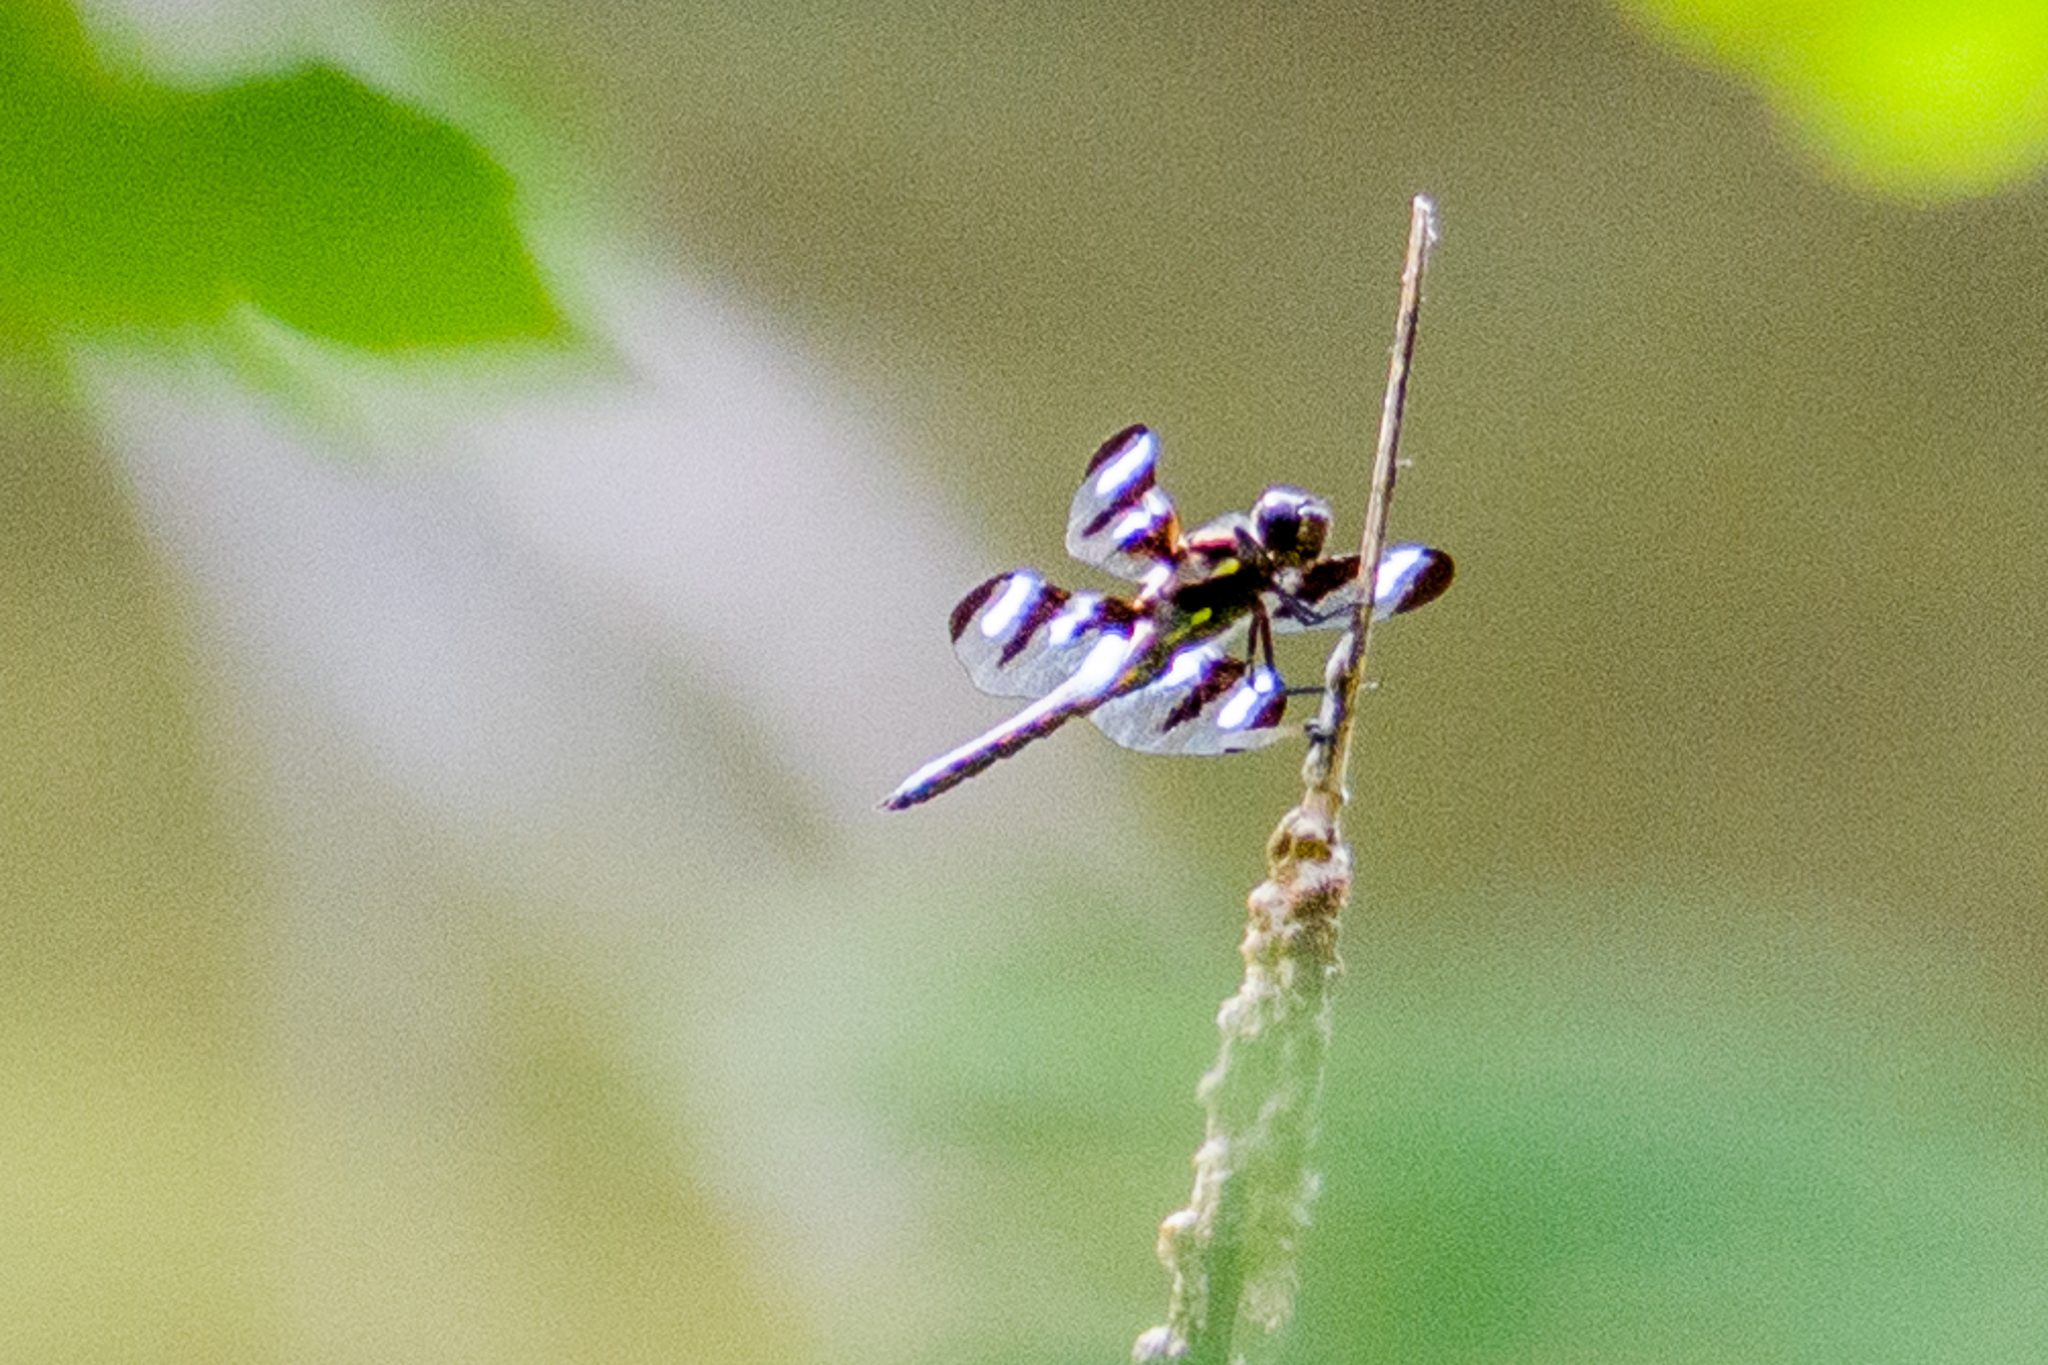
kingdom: Animalia
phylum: Arthropoda
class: Insecta
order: Odonata
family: Libellulidae
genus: Libellula
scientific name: Libellula pulchella
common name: Twelve-spotted skimmer
